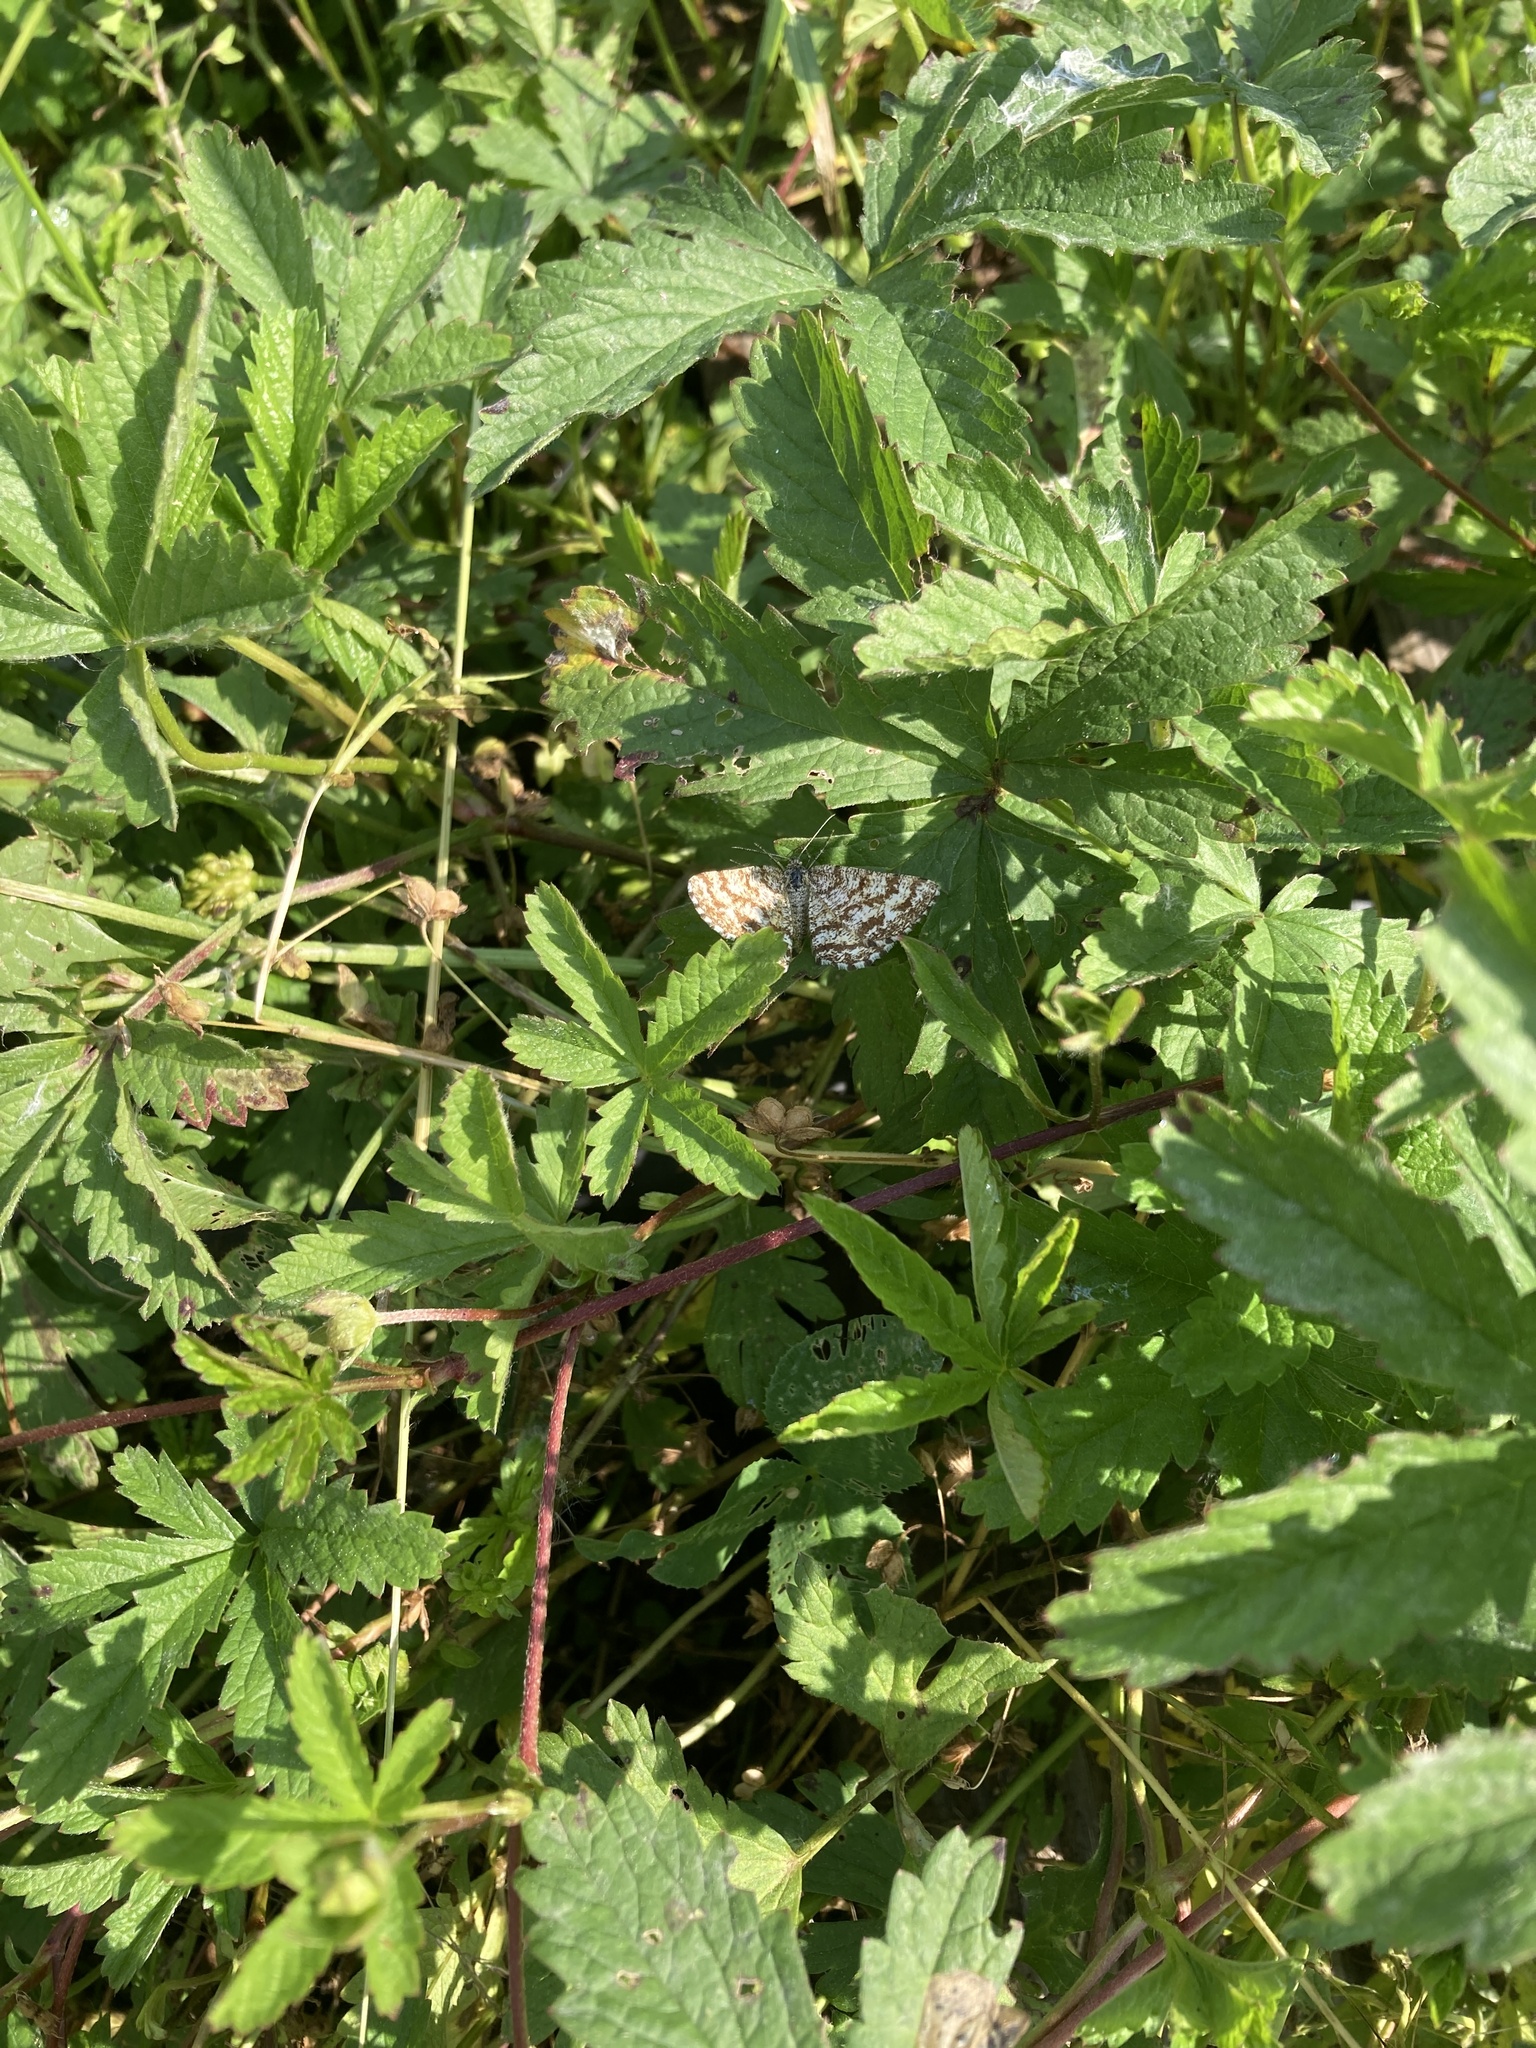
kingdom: Animalia
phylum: Arthropoda
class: Insecta
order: Lepidoptera
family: Geometridae
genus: Ematurga
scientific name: Ematurga atomaria
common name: Common heath
